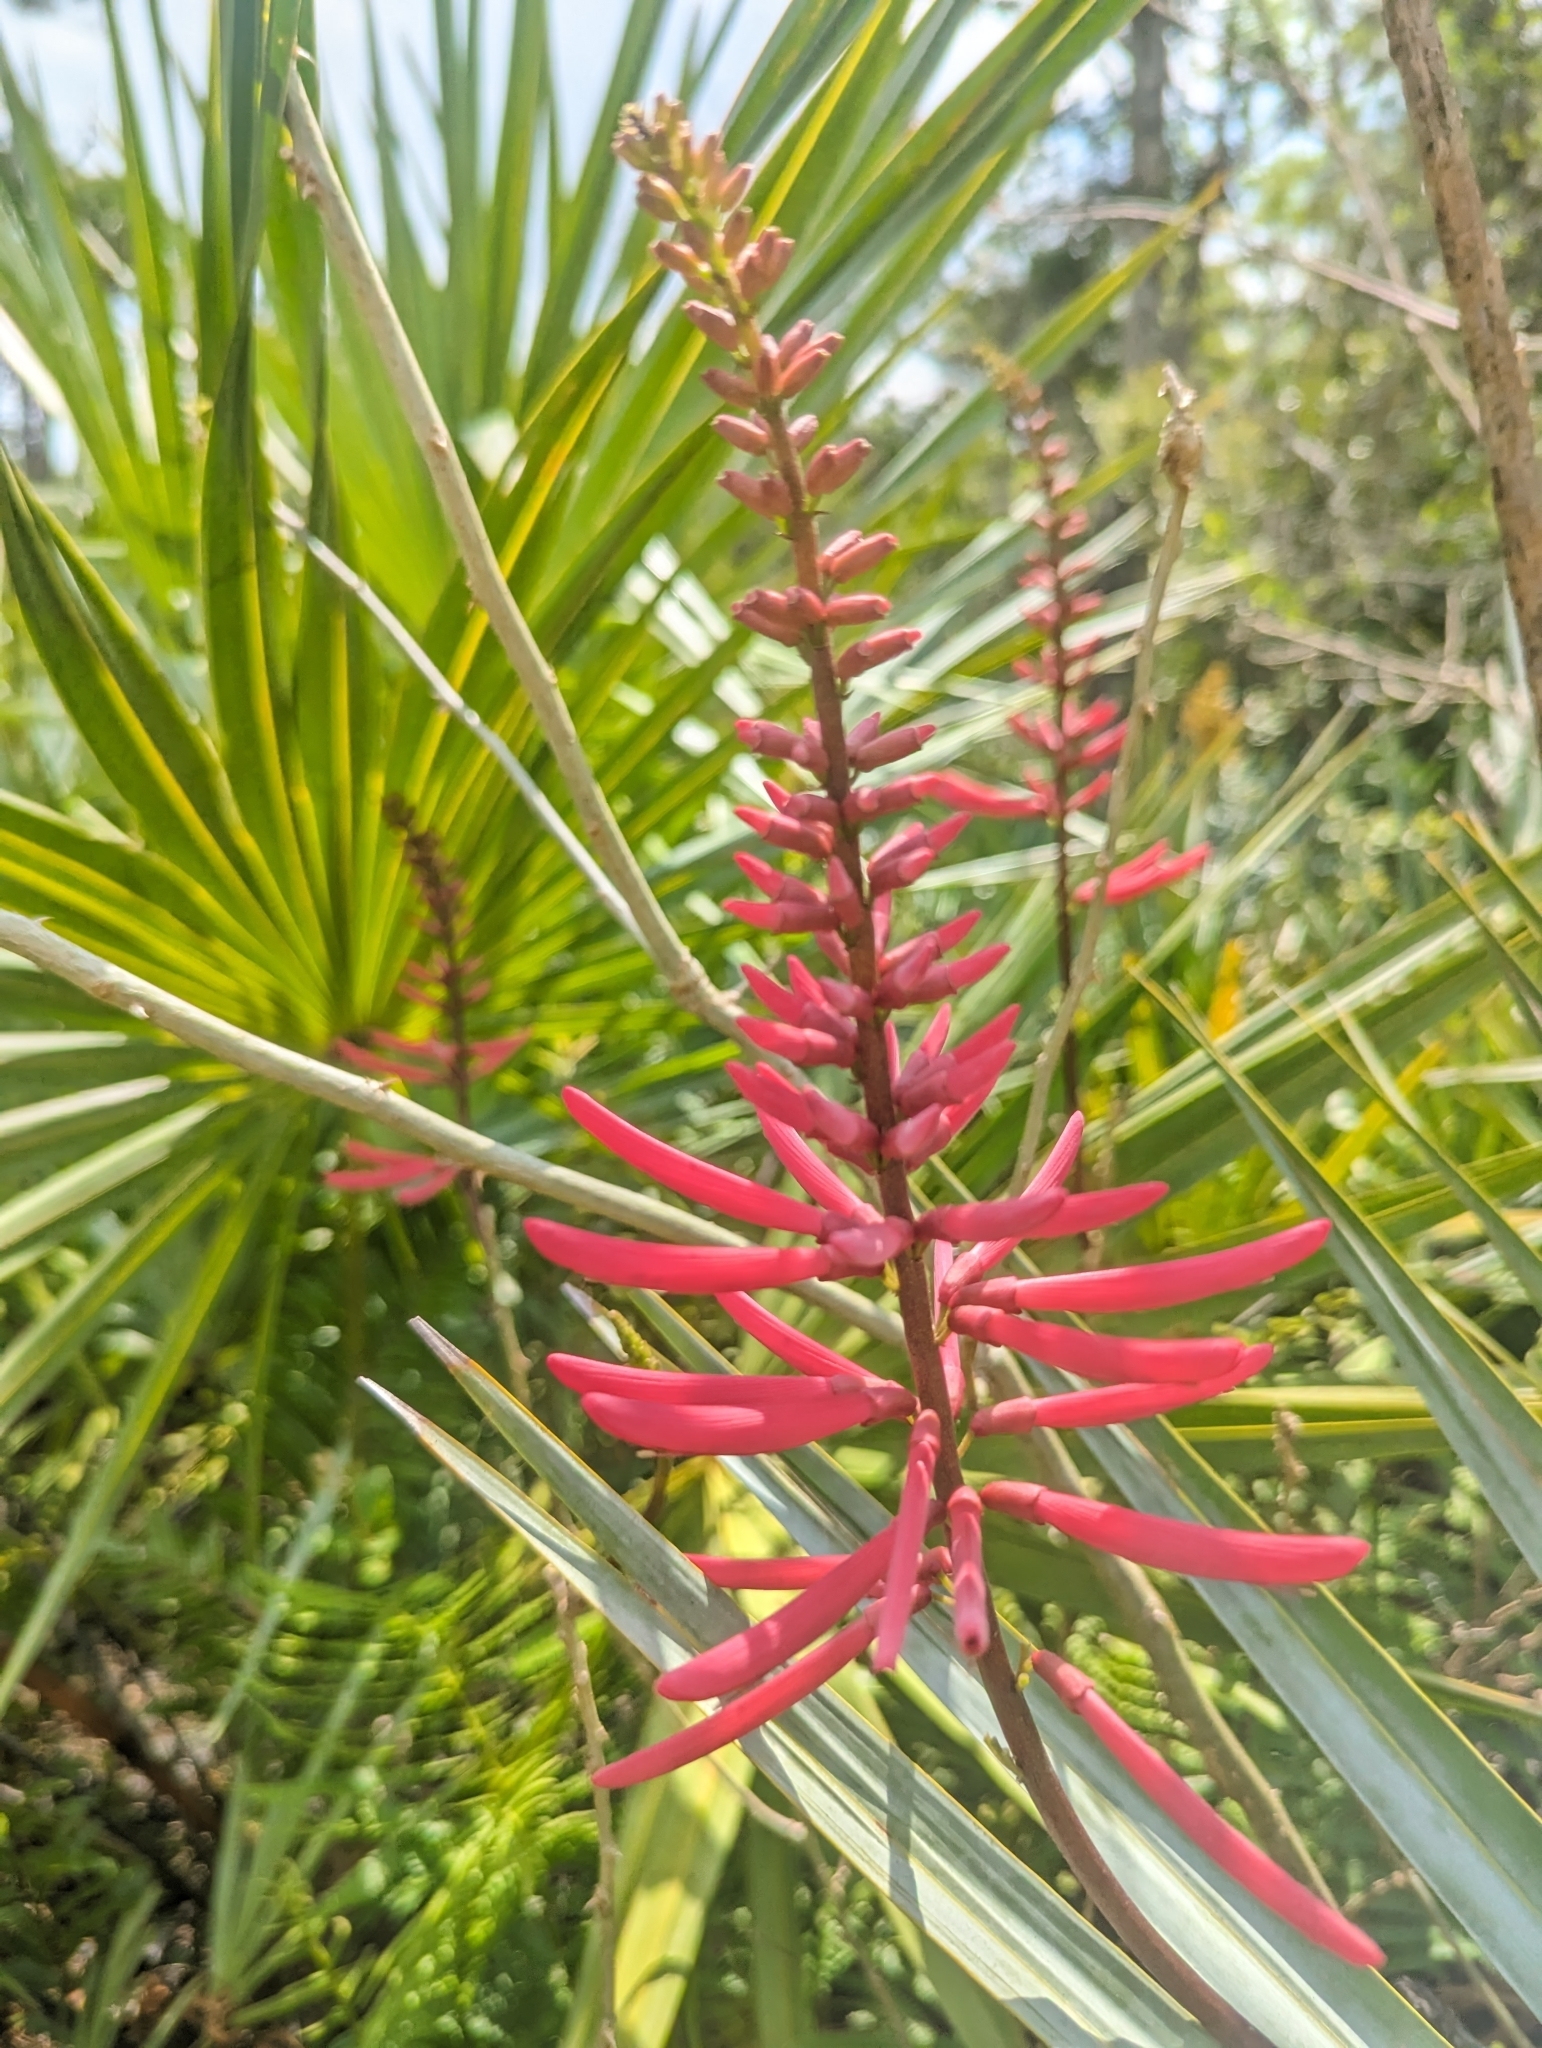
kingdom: Plantae
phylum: Tracheophyta
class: Magnoliopsida
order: Fabales
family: Fabaceae
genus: Erythrina
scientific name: Erythrina herbacea
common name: Coral-bean
